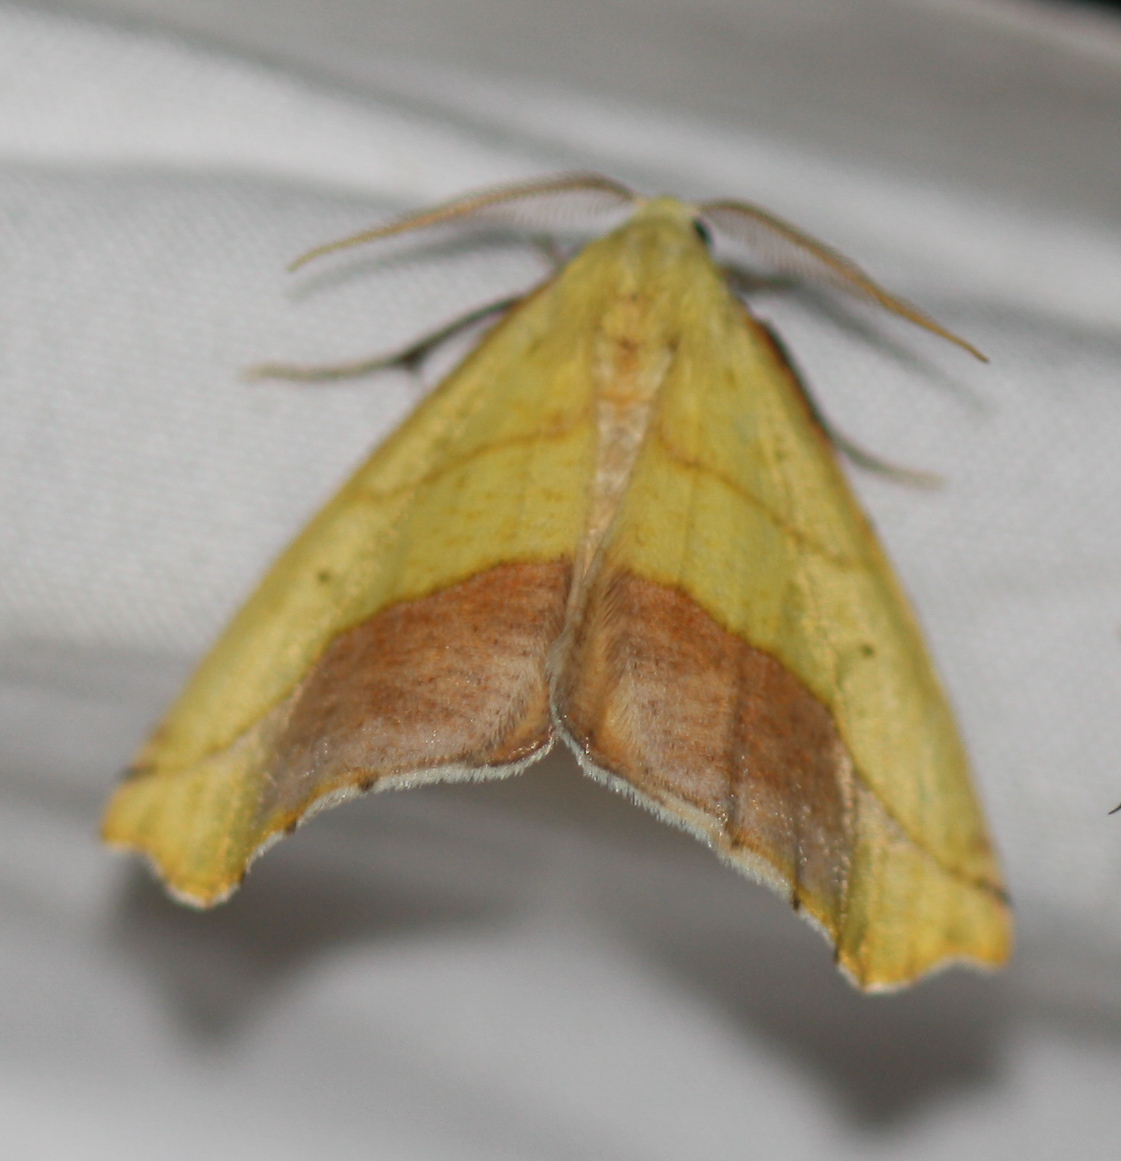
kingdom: Animalia
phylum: Arthropoda
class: Insecta
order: Lepidoptera
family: Geometridae
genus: Sicya
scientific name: Sicya macularia
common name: Sharp-lined yellow
